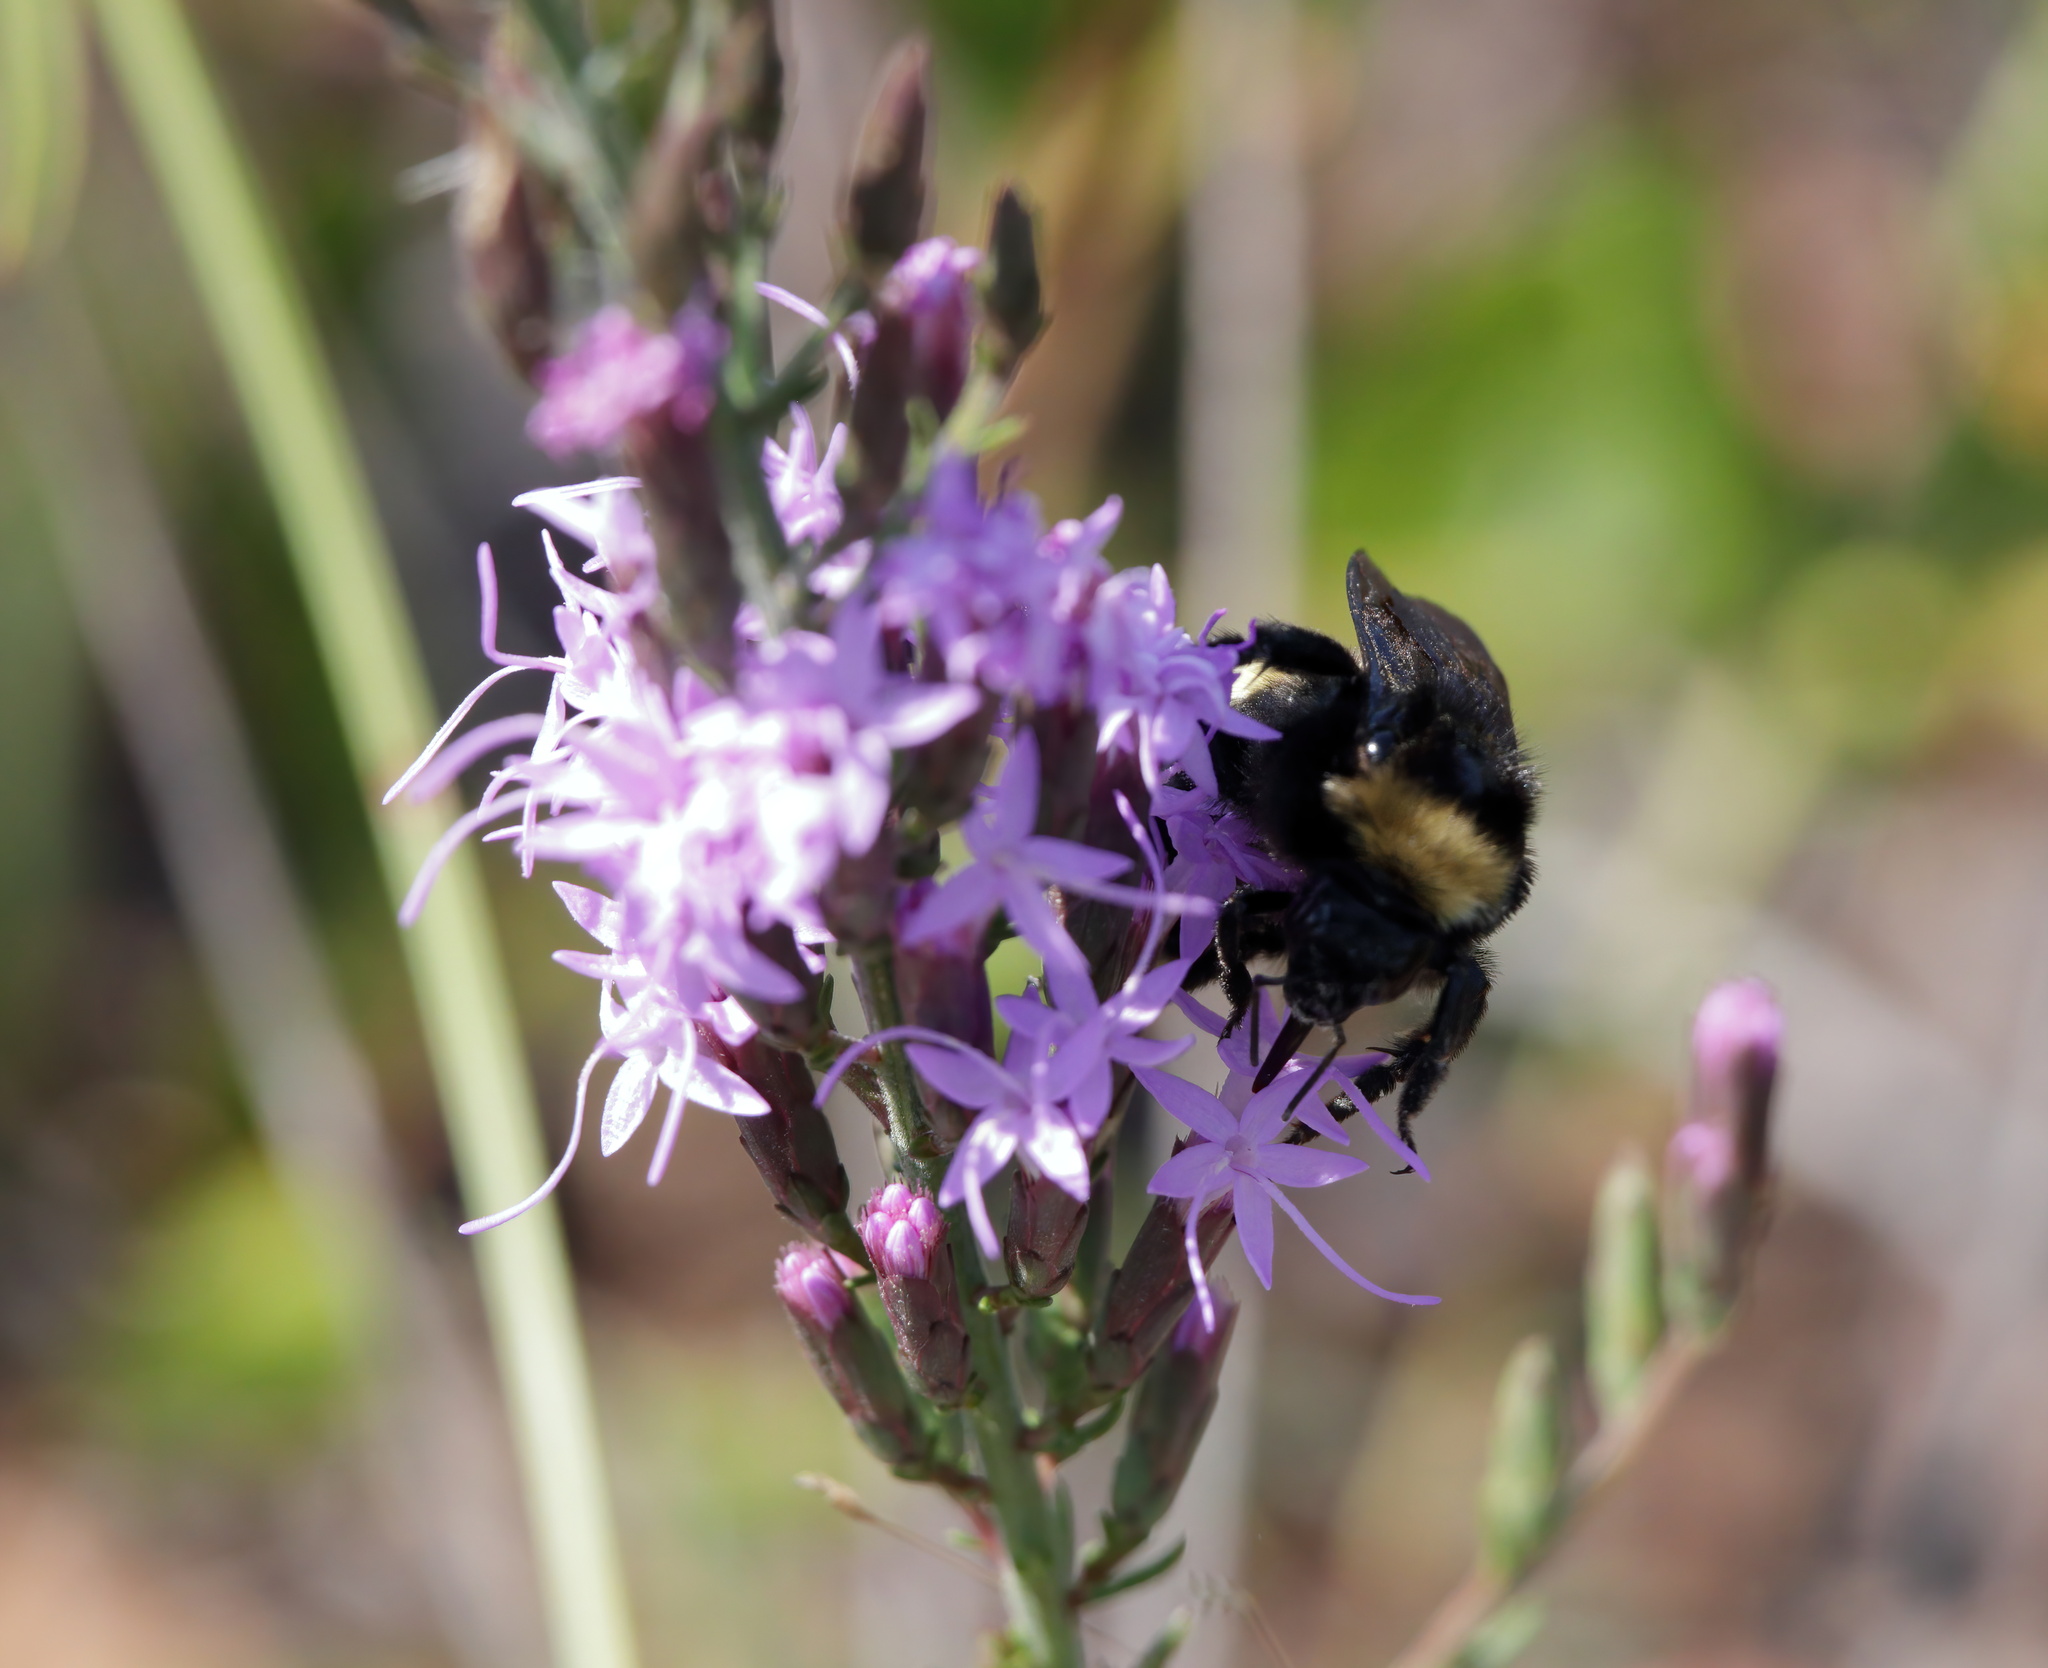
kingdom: Animalia
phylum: Arthropoda
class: Insecta
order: Hymenoptera
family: Apidae
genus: Bombus
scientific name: Bombus pensylvanicus
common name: Bumble bee
